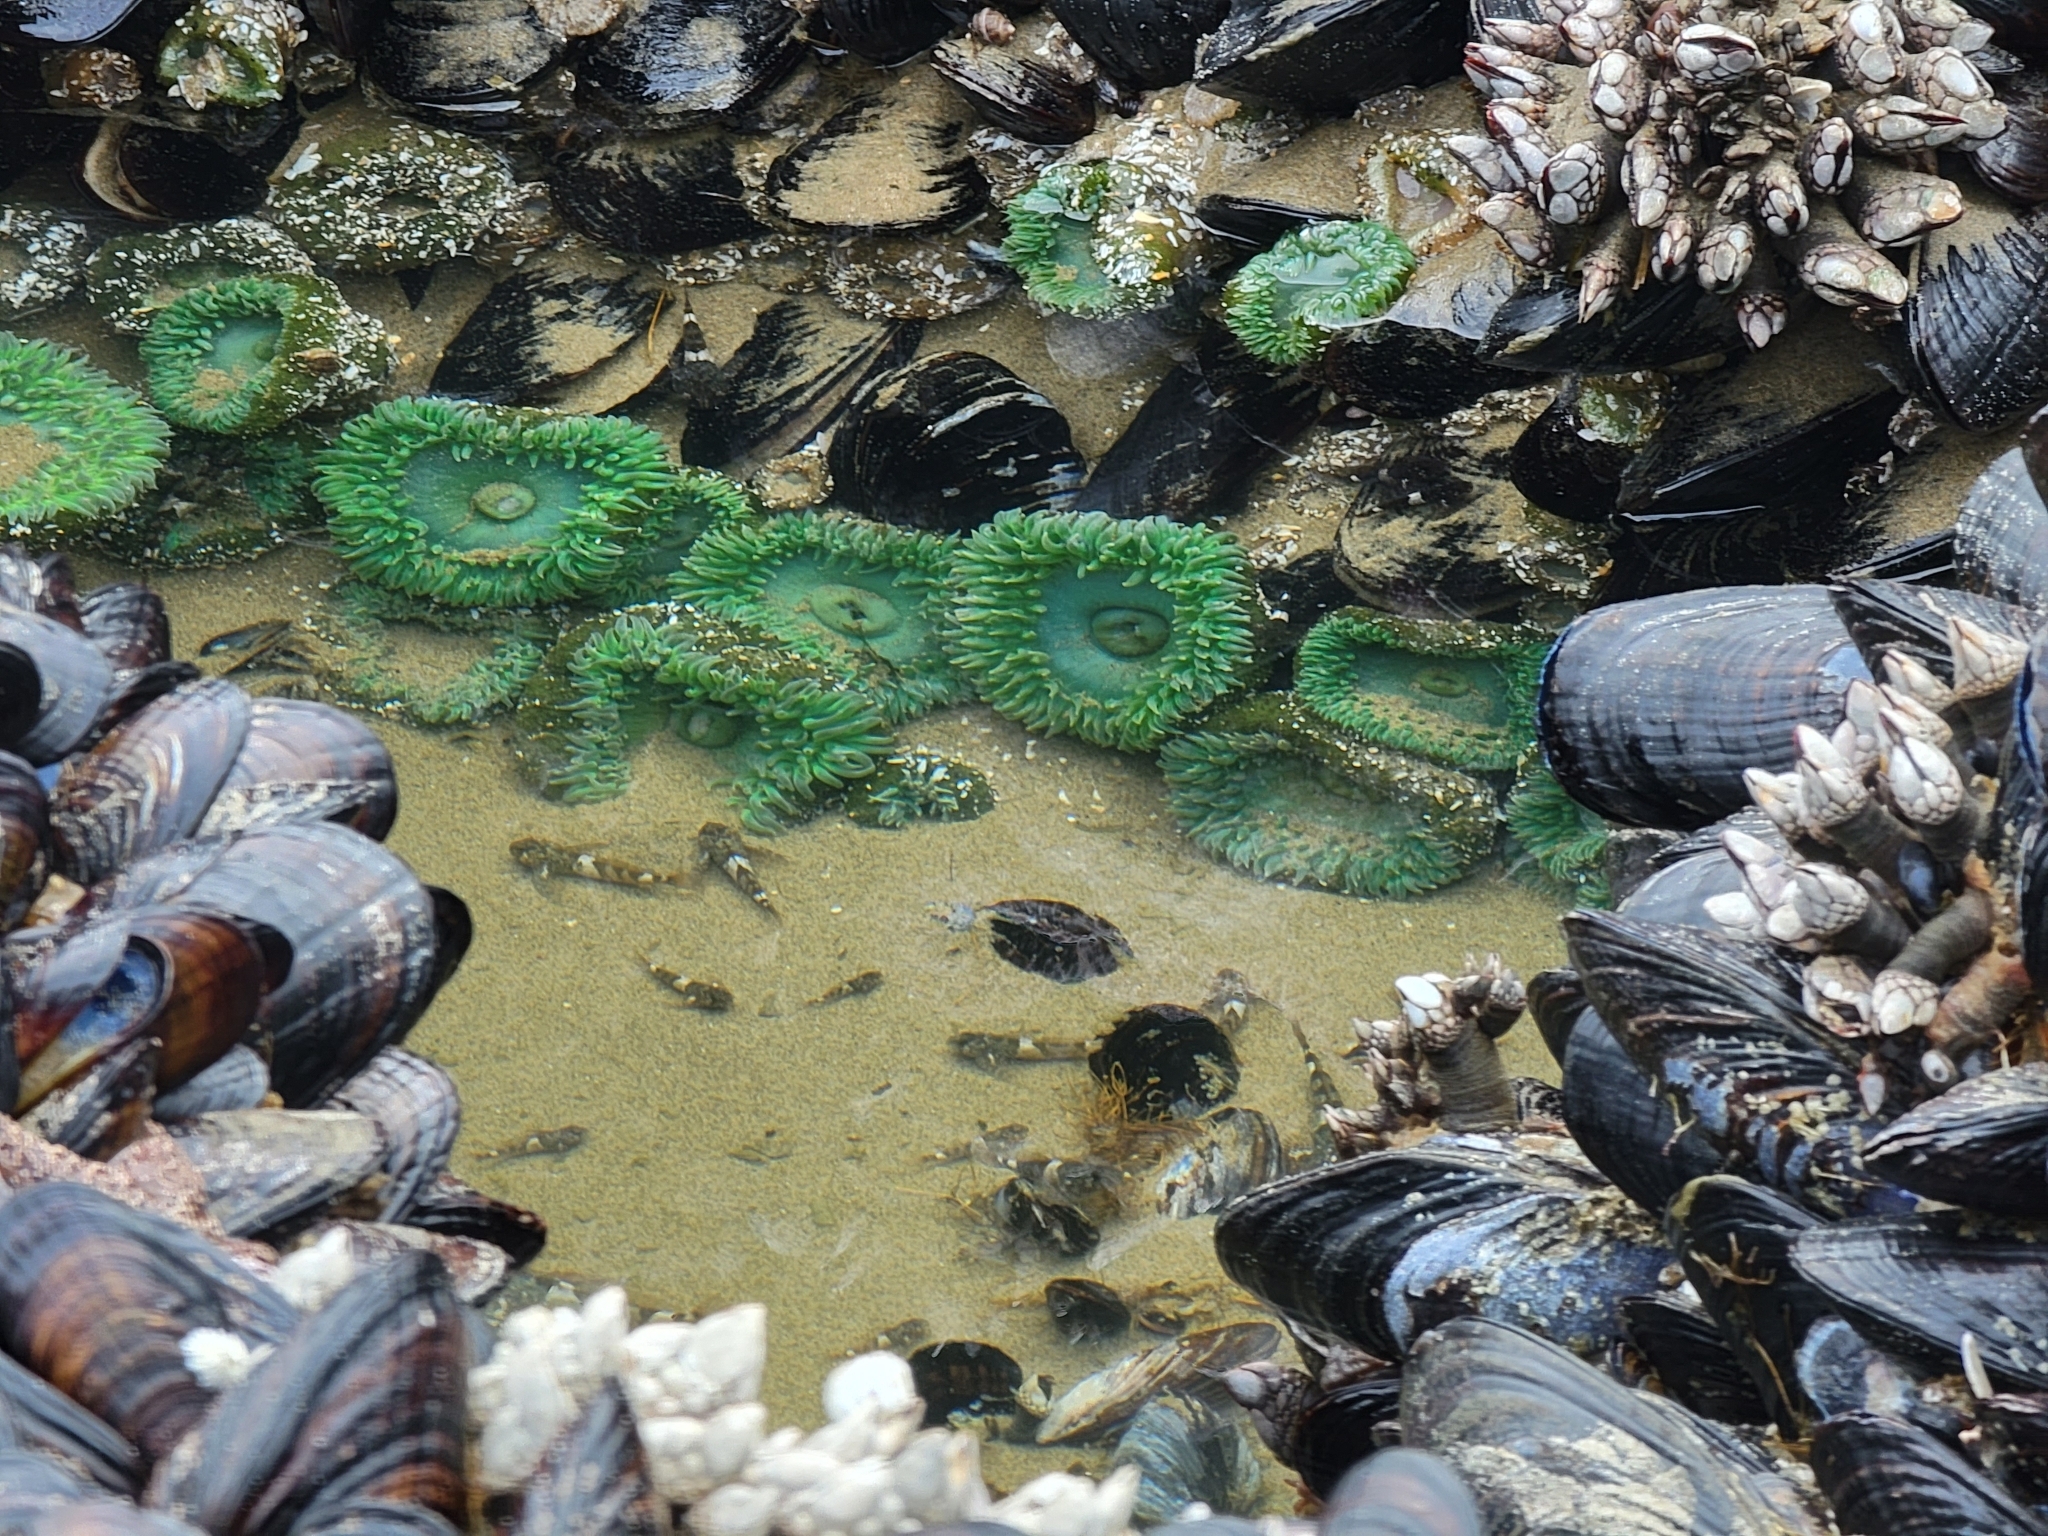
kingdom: Animalia
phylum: Cnidaria
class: Anthozoa
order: Actiniaria
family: Actiniidae
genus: Anthopleura
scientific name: Anthopleura xanthogrammica
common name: Giant green anemone
